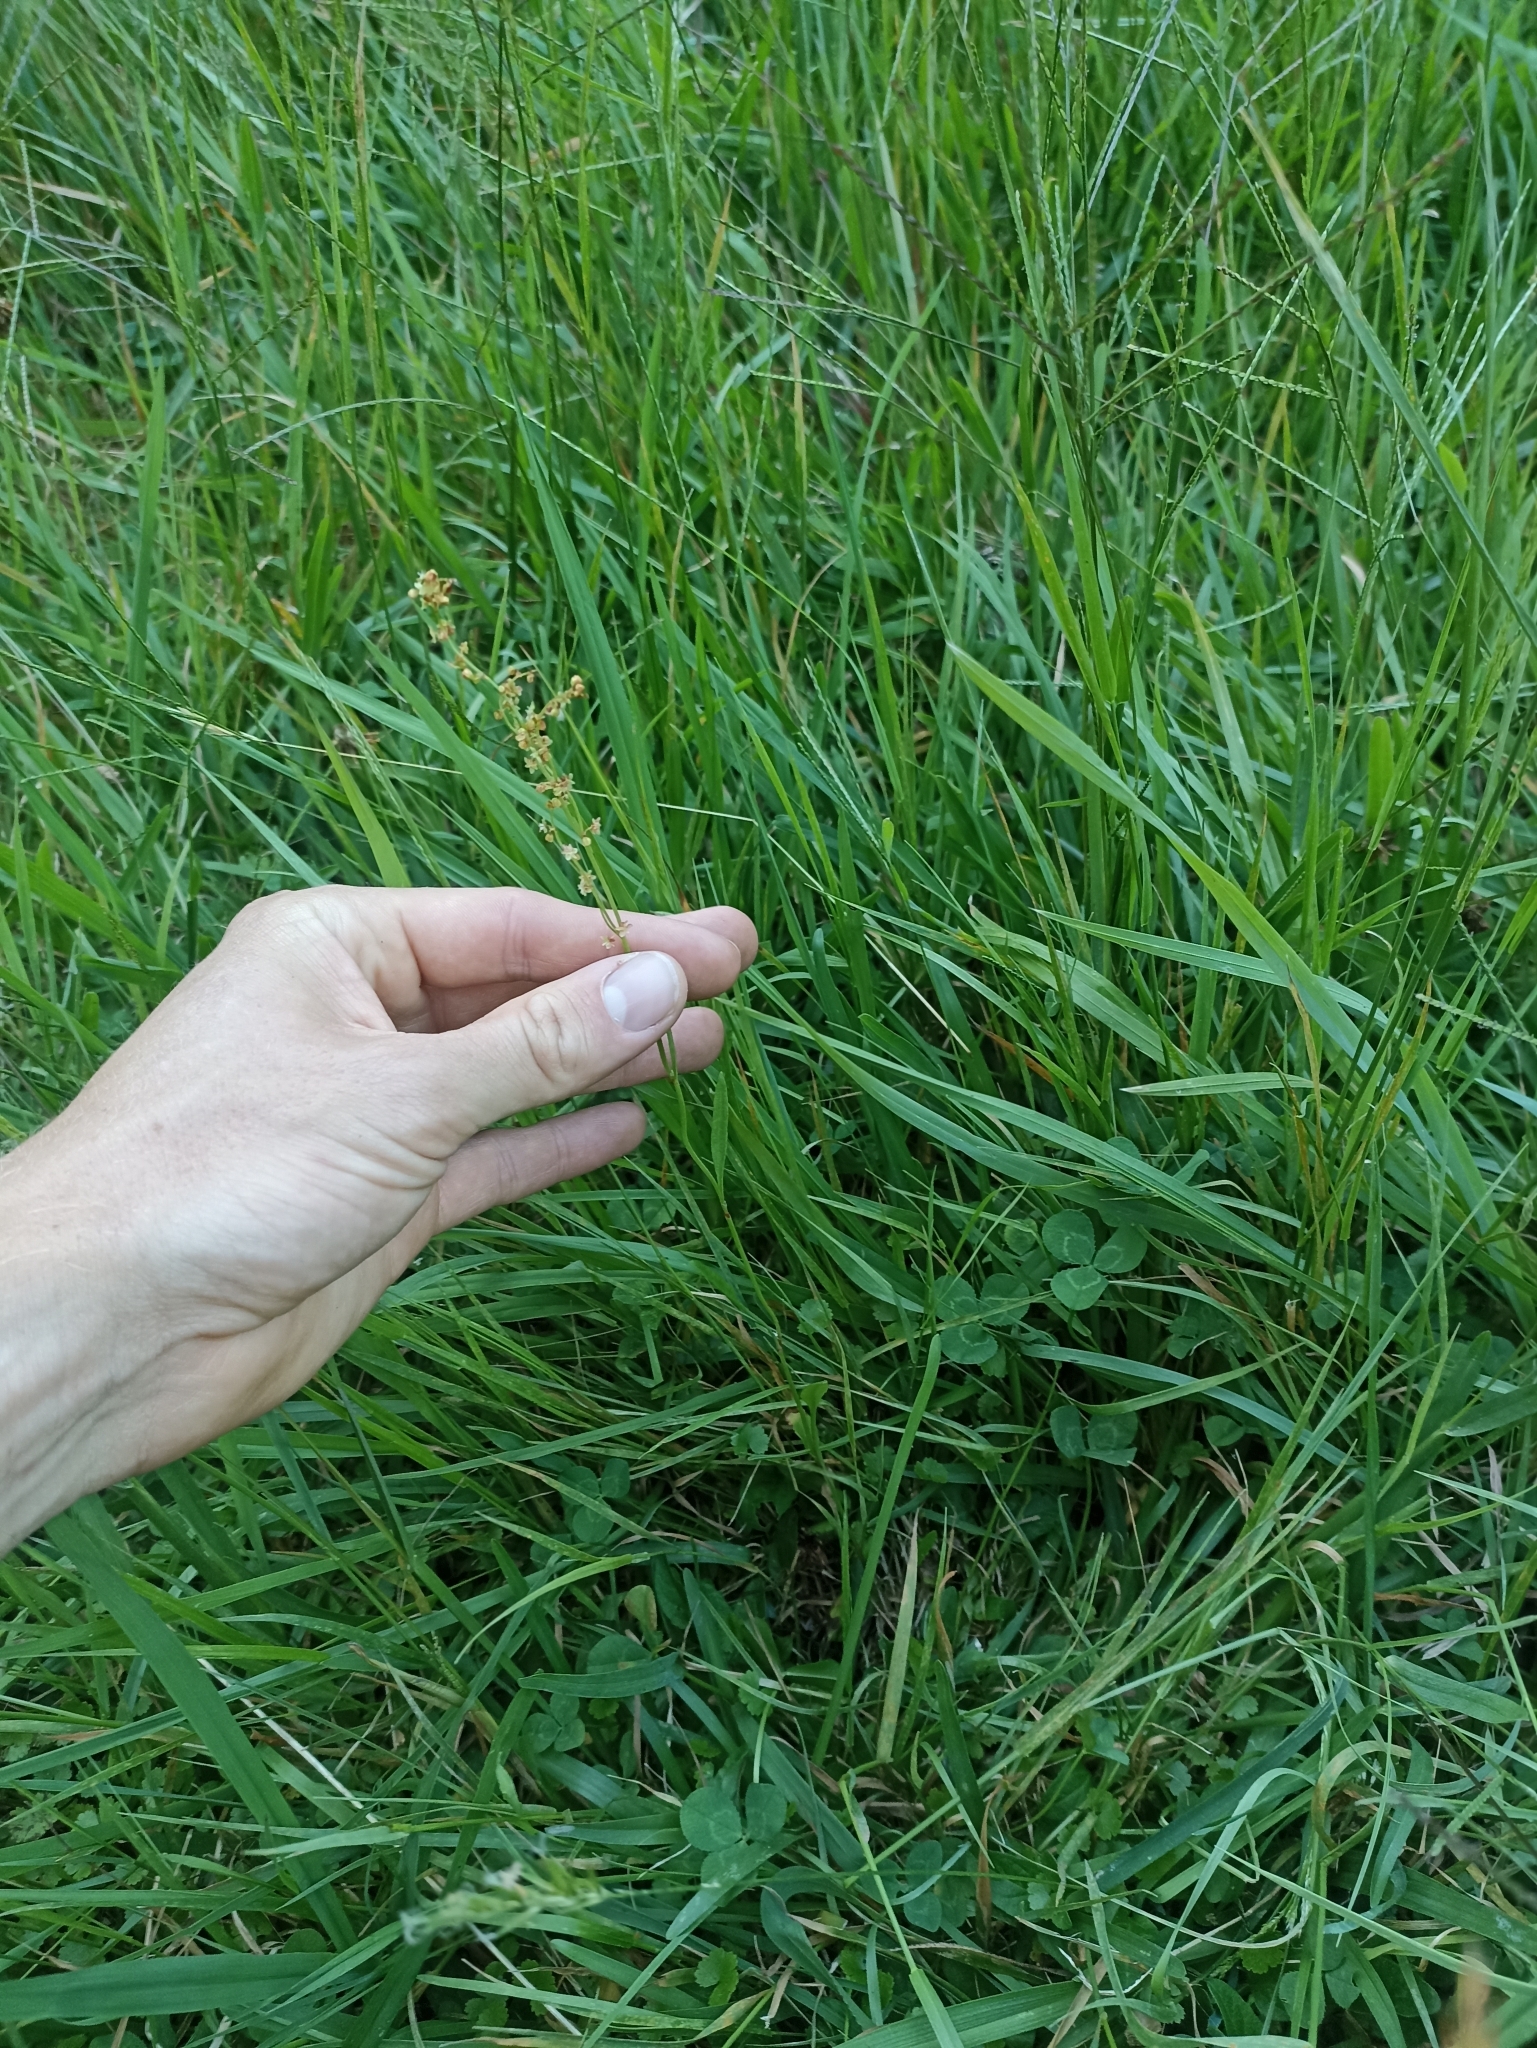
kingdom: Plantae
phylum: Tracheophyta
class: Magnoliopsida
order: Caryophyllales
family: Polygonaceae
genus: Rumex
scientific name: Rumex acetosella
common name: Common sheep sorrel
